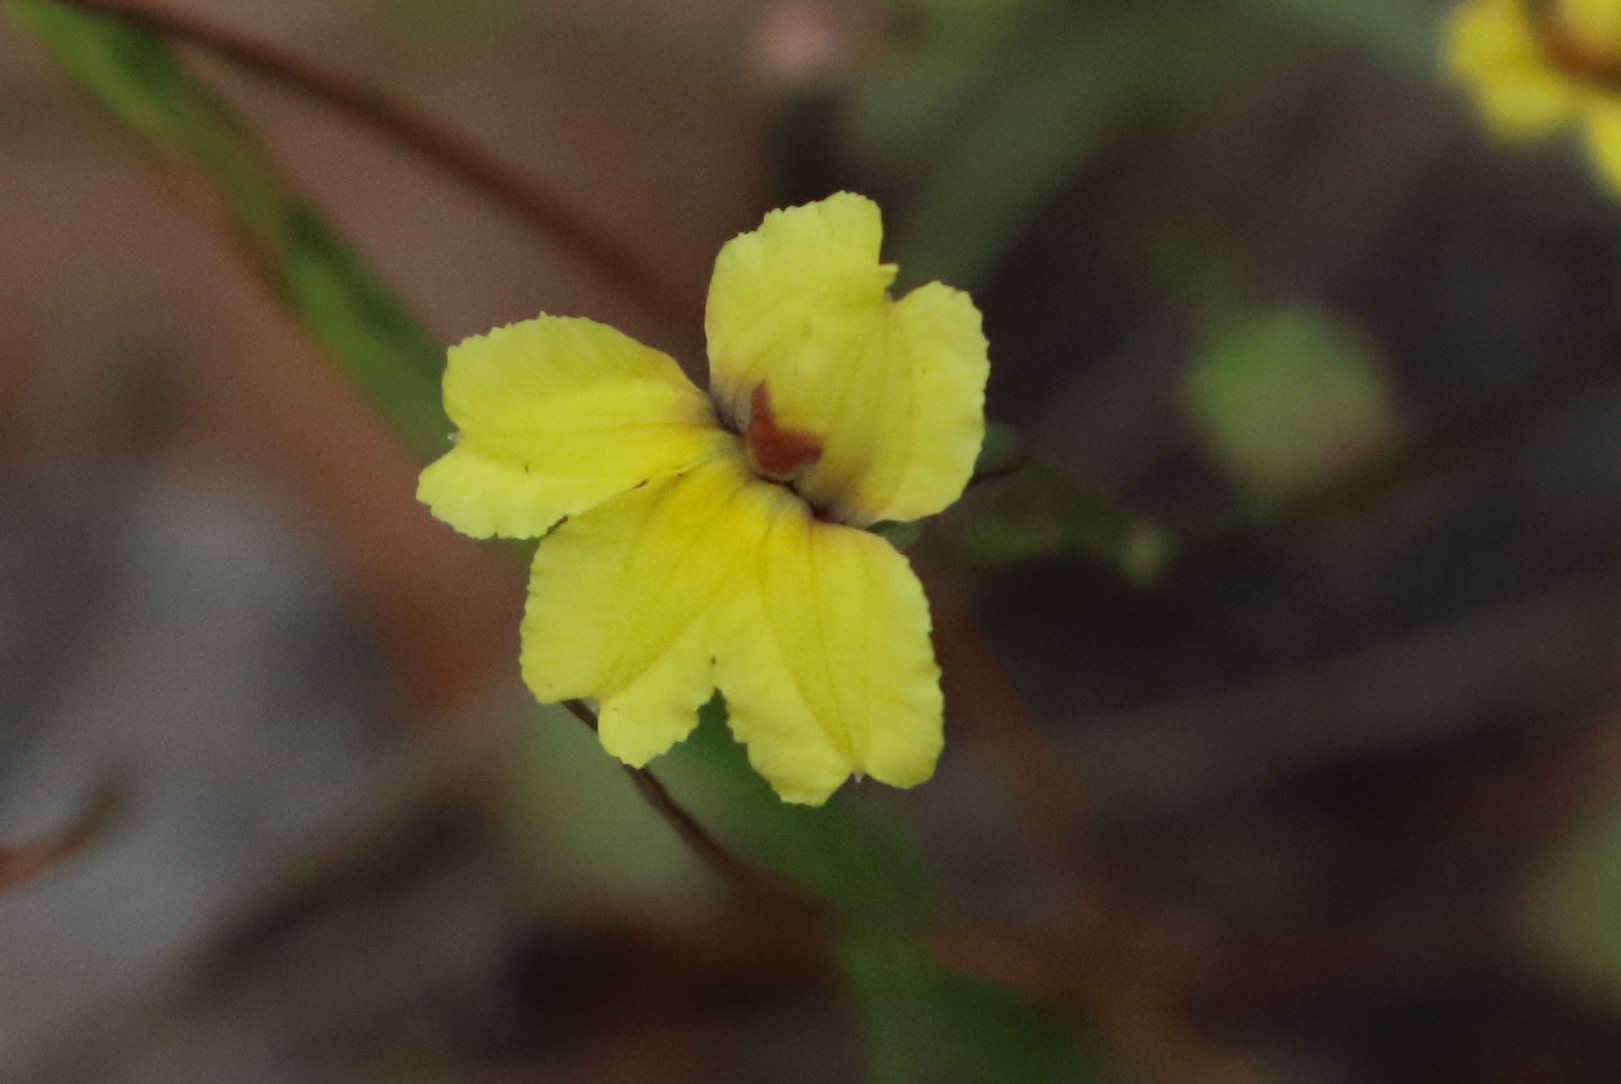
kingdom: Plantae
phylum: Tracheophyta
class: Magnoliopsida
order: Asterales
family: Goodeniaceae
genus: Goodenia
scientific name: Goodenia mystrophylla
